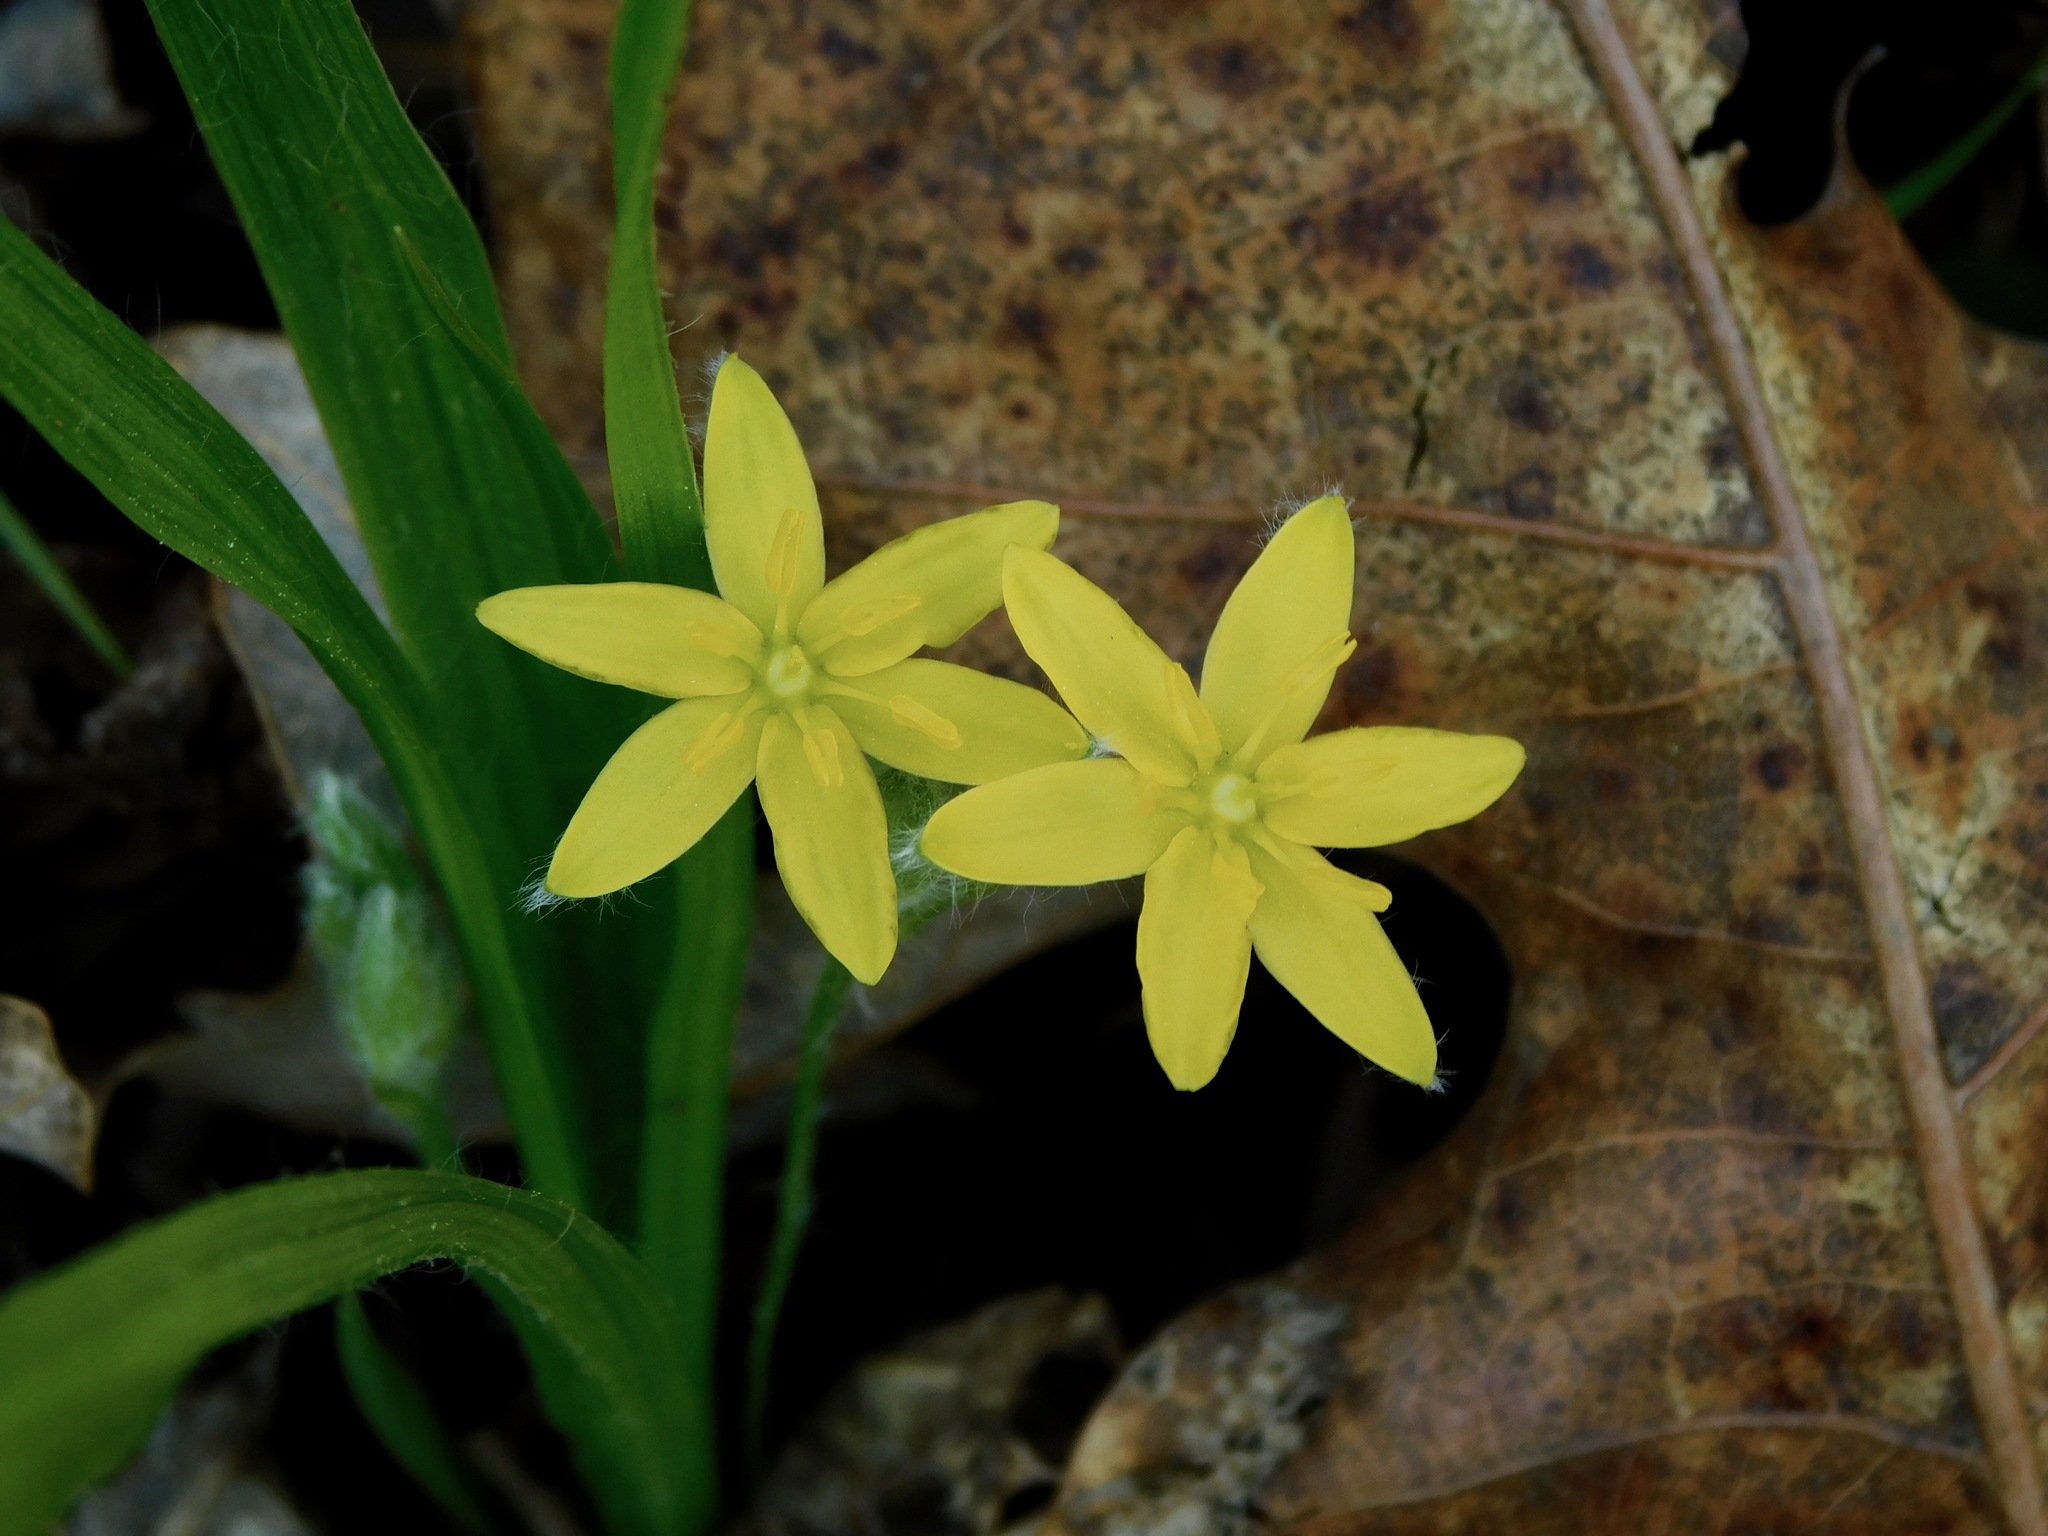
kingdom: Plantae
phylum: Tracheophyta
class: Liliopsida
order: Asparagales
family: Hypoxidaceae
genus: Hypoxis
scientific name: Hypoxis hirsuta
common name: Common goldstar
